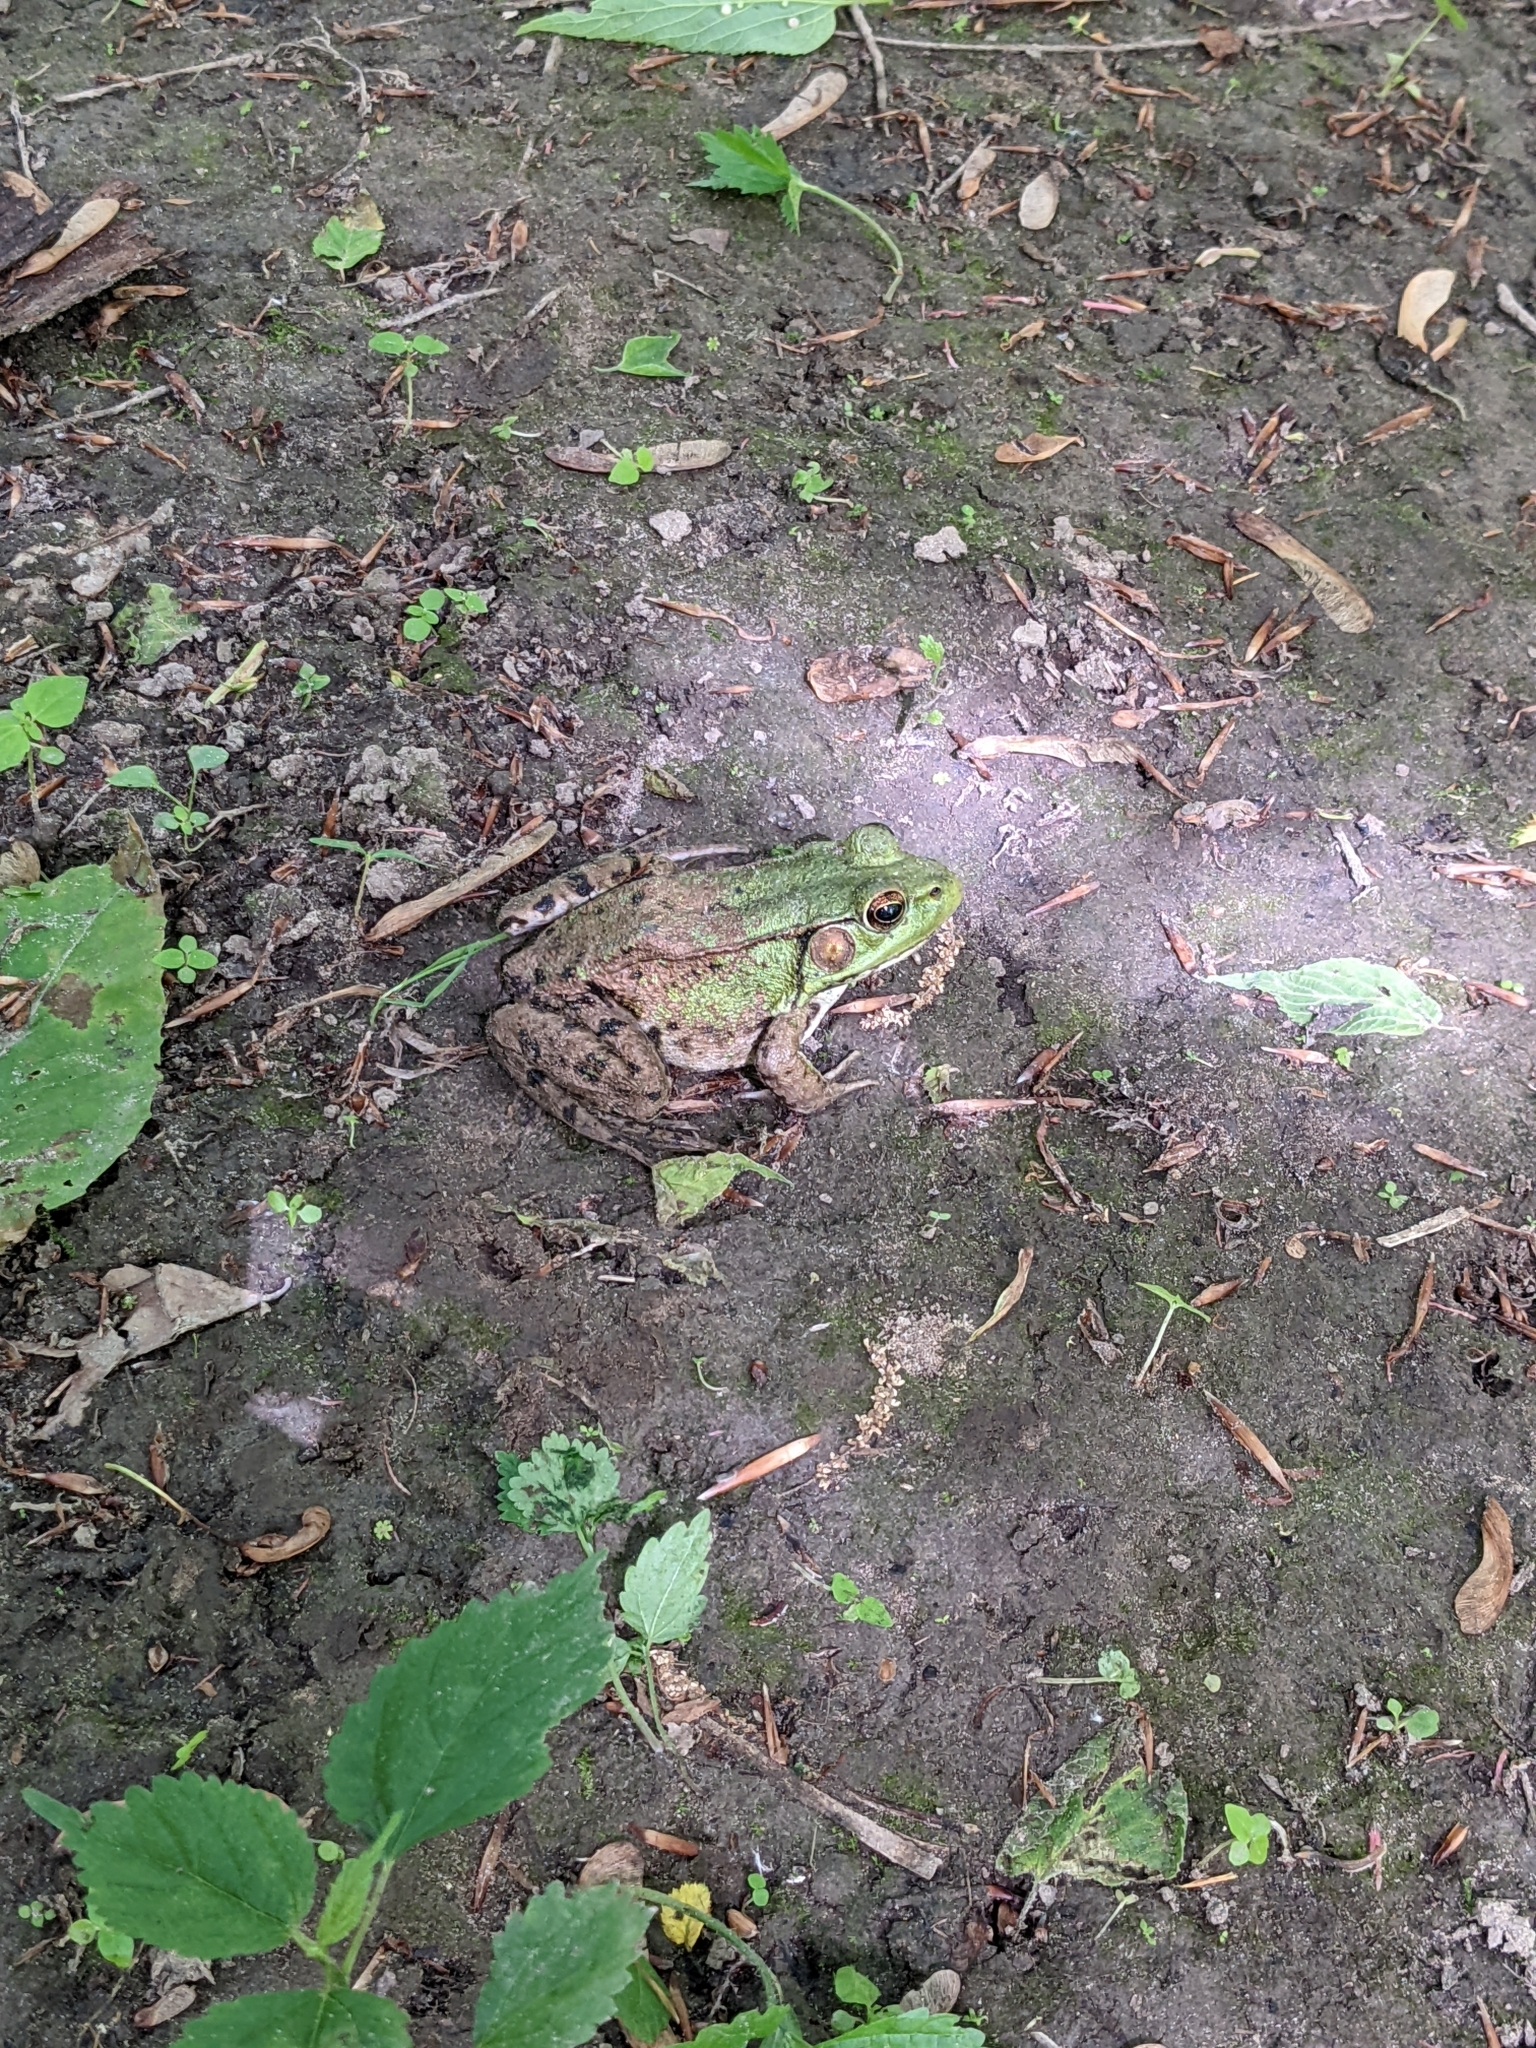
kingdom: Animalia
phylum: Chordata
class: Amphibia
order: Anura
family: Ranidae
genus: Lithobates
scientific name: Lithobates clamitans
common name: Green frog
